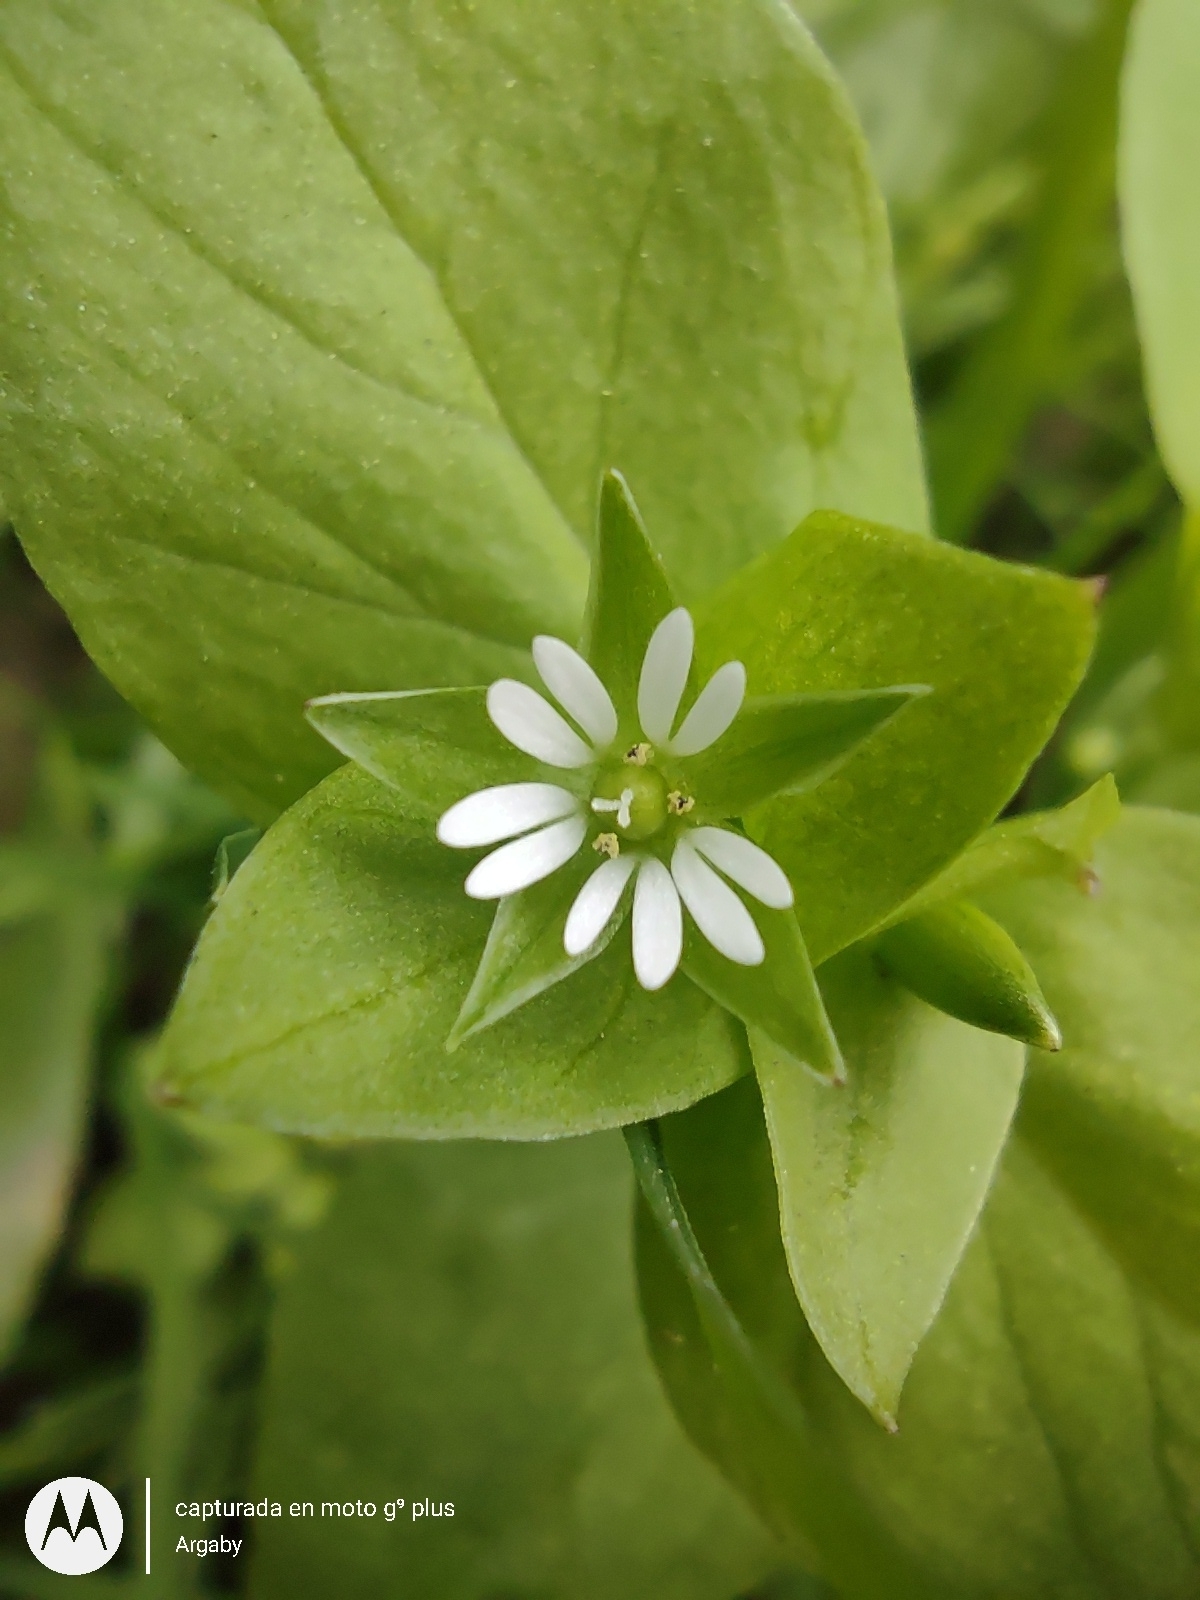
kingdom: Plantae
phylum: Tracheophyta
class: Magnoliopsida
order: Caryophyllales
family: Caryophyllaceae
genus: Stellaria
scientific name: Stellaria media
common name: Common chickweed
